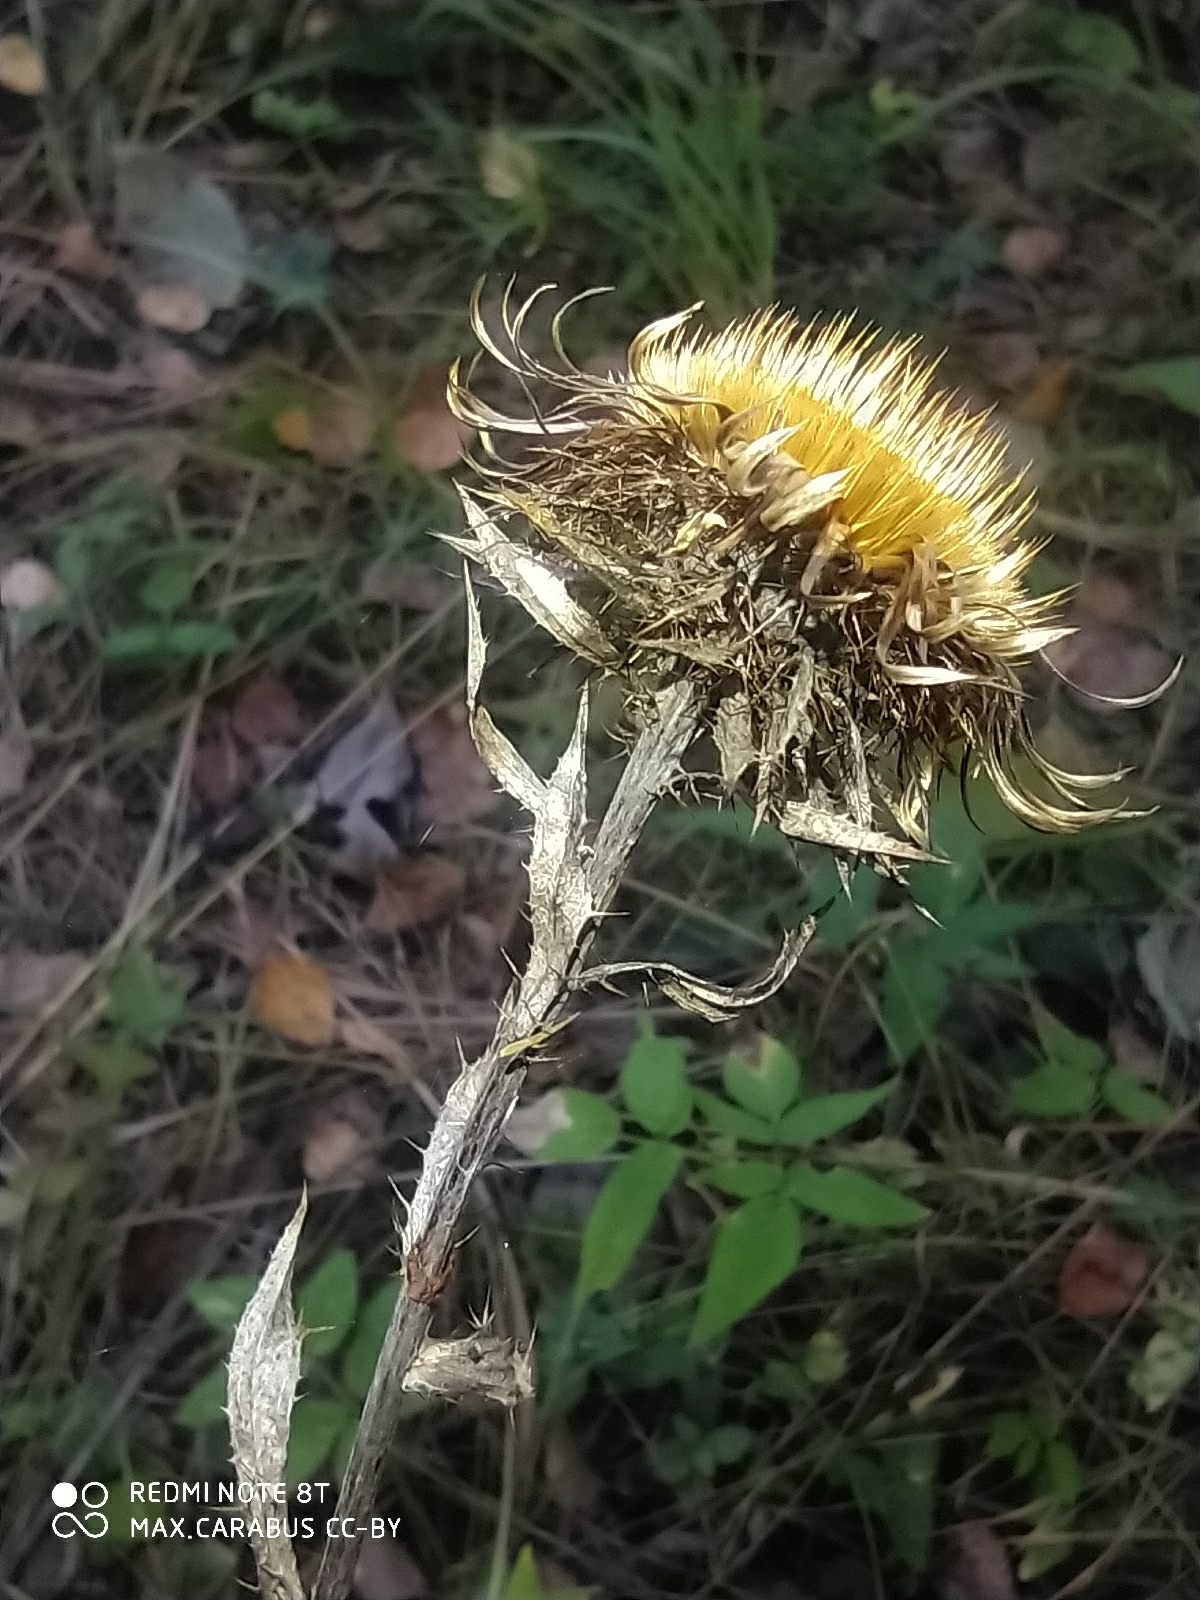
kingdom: Plantae
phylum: Tracheophyta
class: Magnoliopsida
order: Asterales
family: Asteraceae
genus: Carlina
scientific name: Carlina biebersteinii
